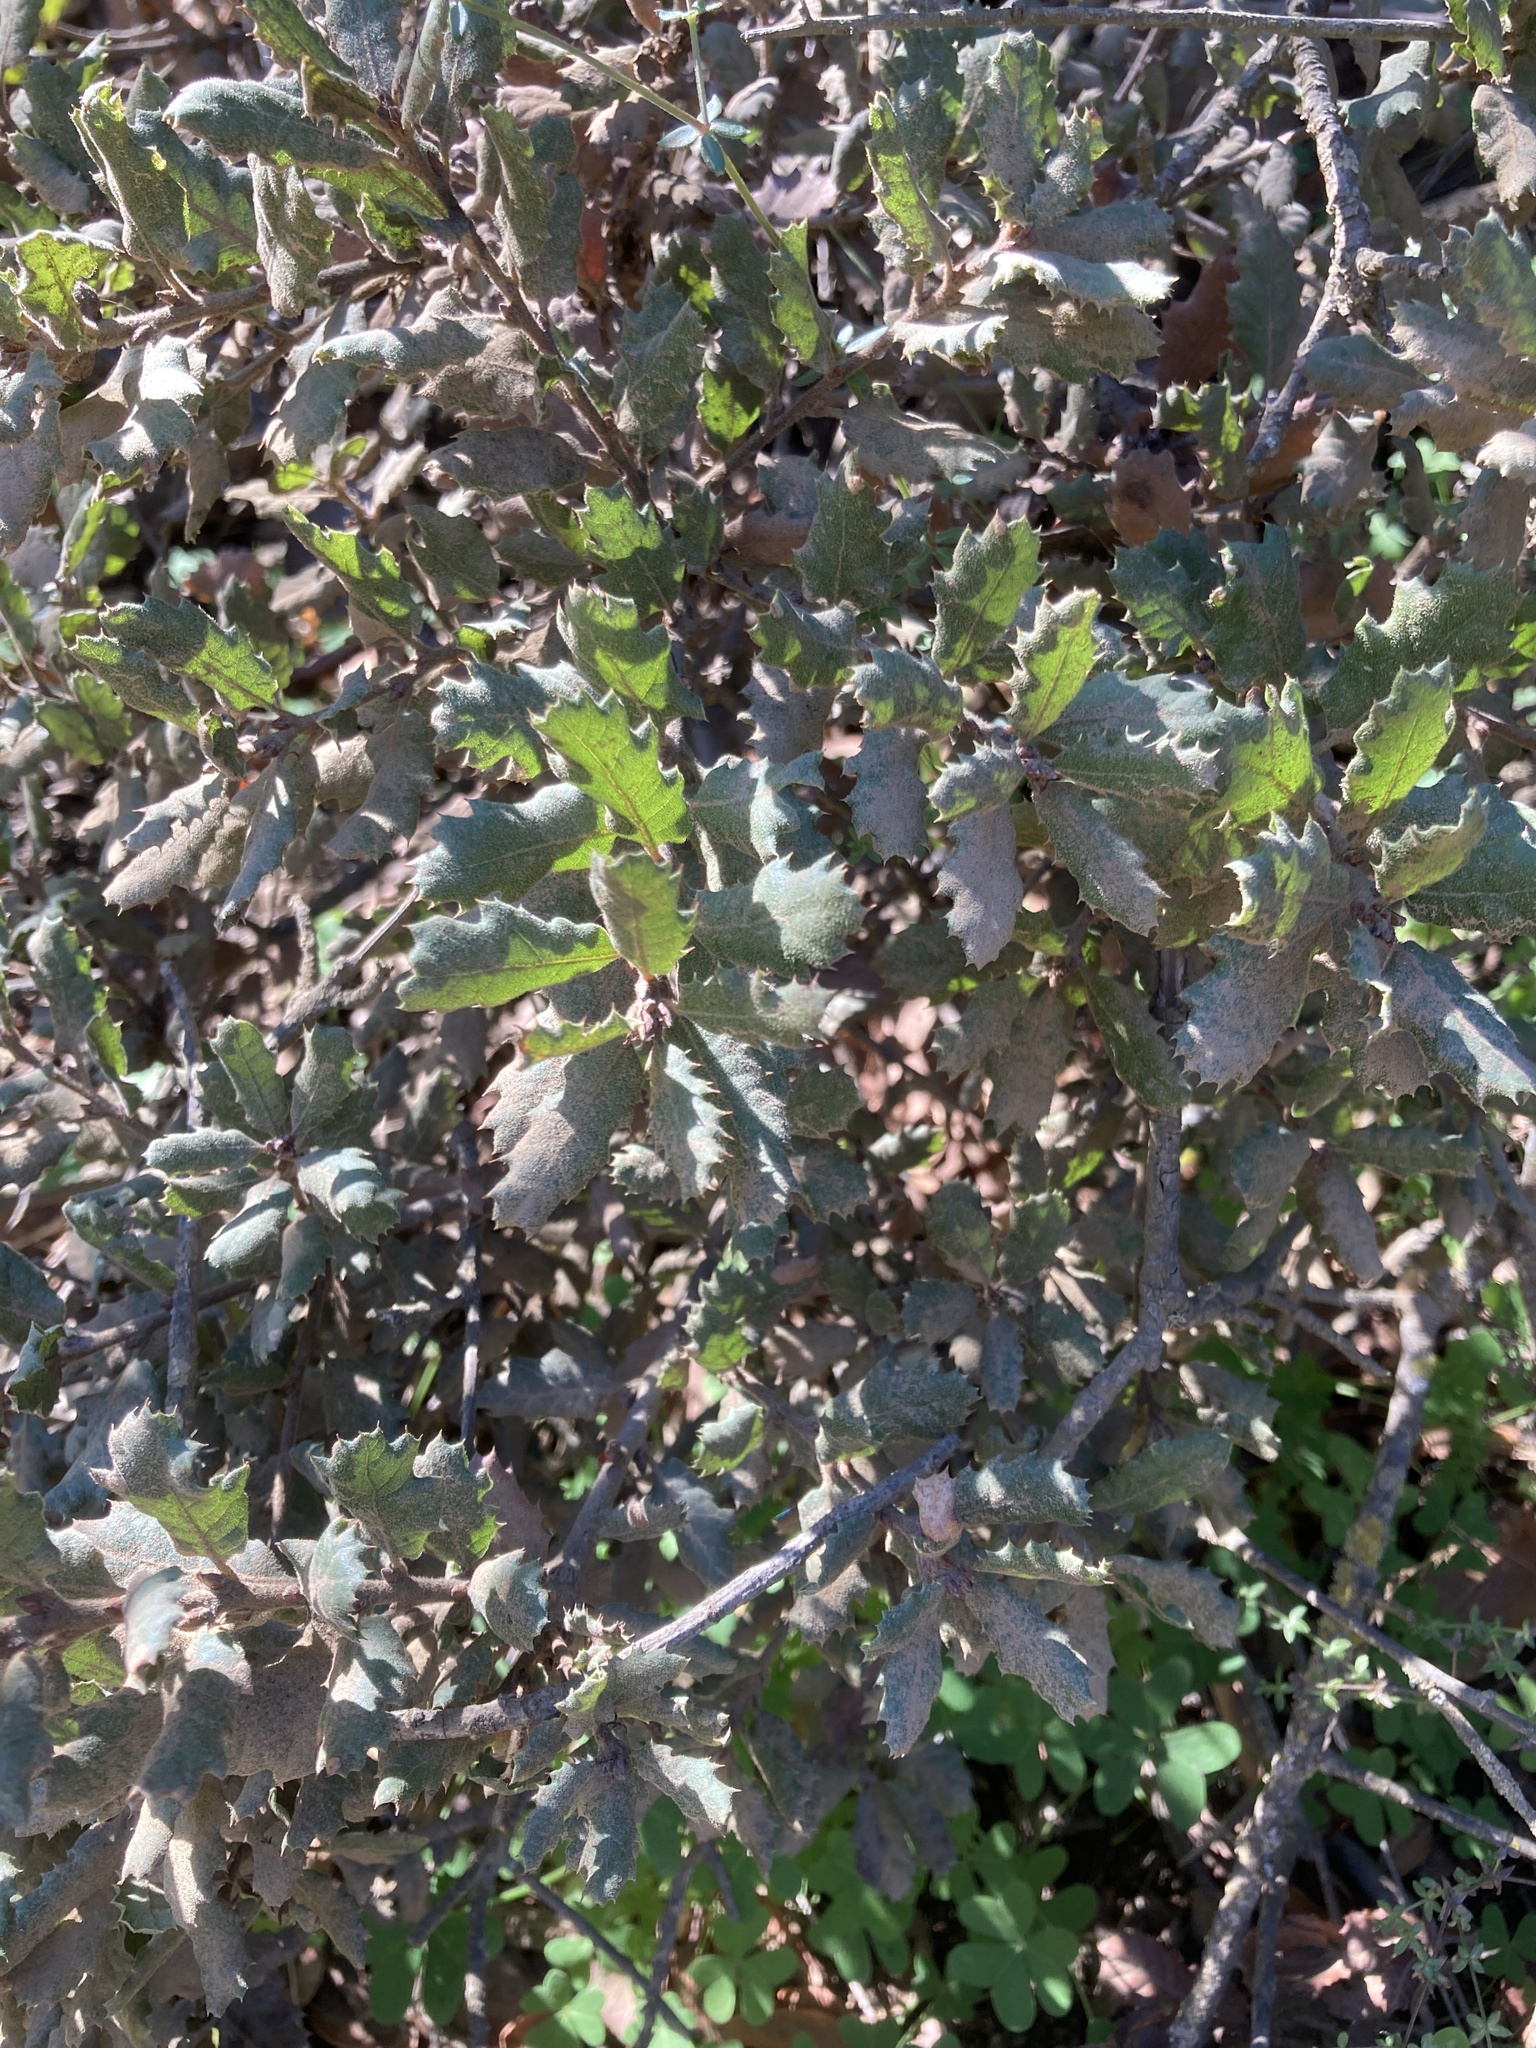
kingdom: Plantae
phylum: Tracheophyta
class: Magnoliopsida
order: Fagales
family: Fagaceae
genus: Quercus
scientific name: Quercus durata
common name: Leather oak
